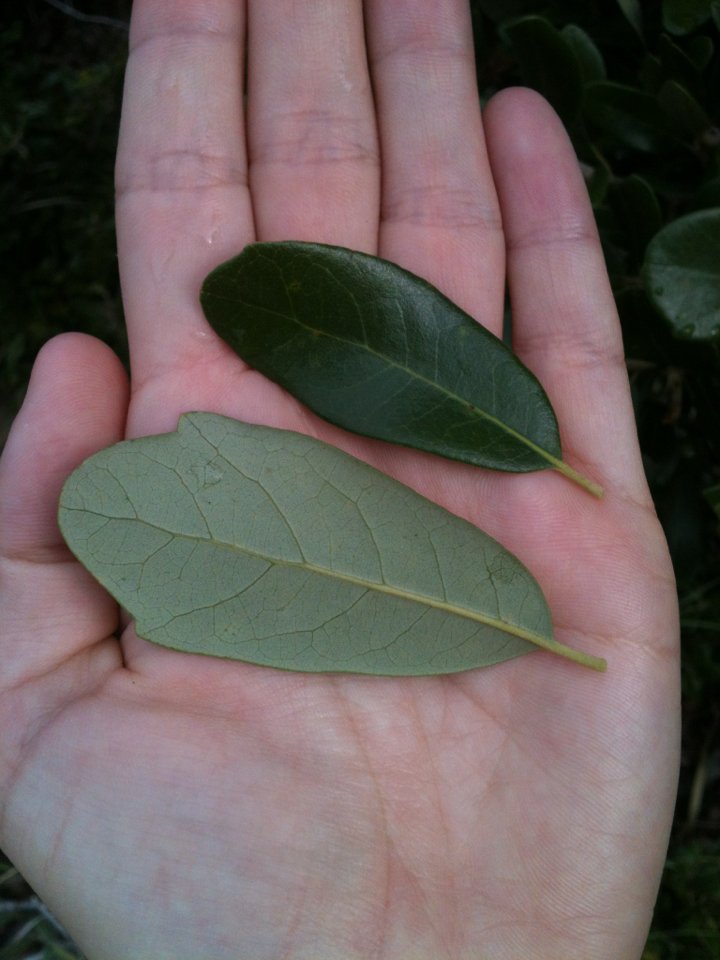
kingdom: Plantae
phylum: Tracheophyta
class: Magnoliopsida
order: Fagales
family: Fagaceae
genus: Quercus
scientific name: Quercus virginiana
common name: Southern live oak
